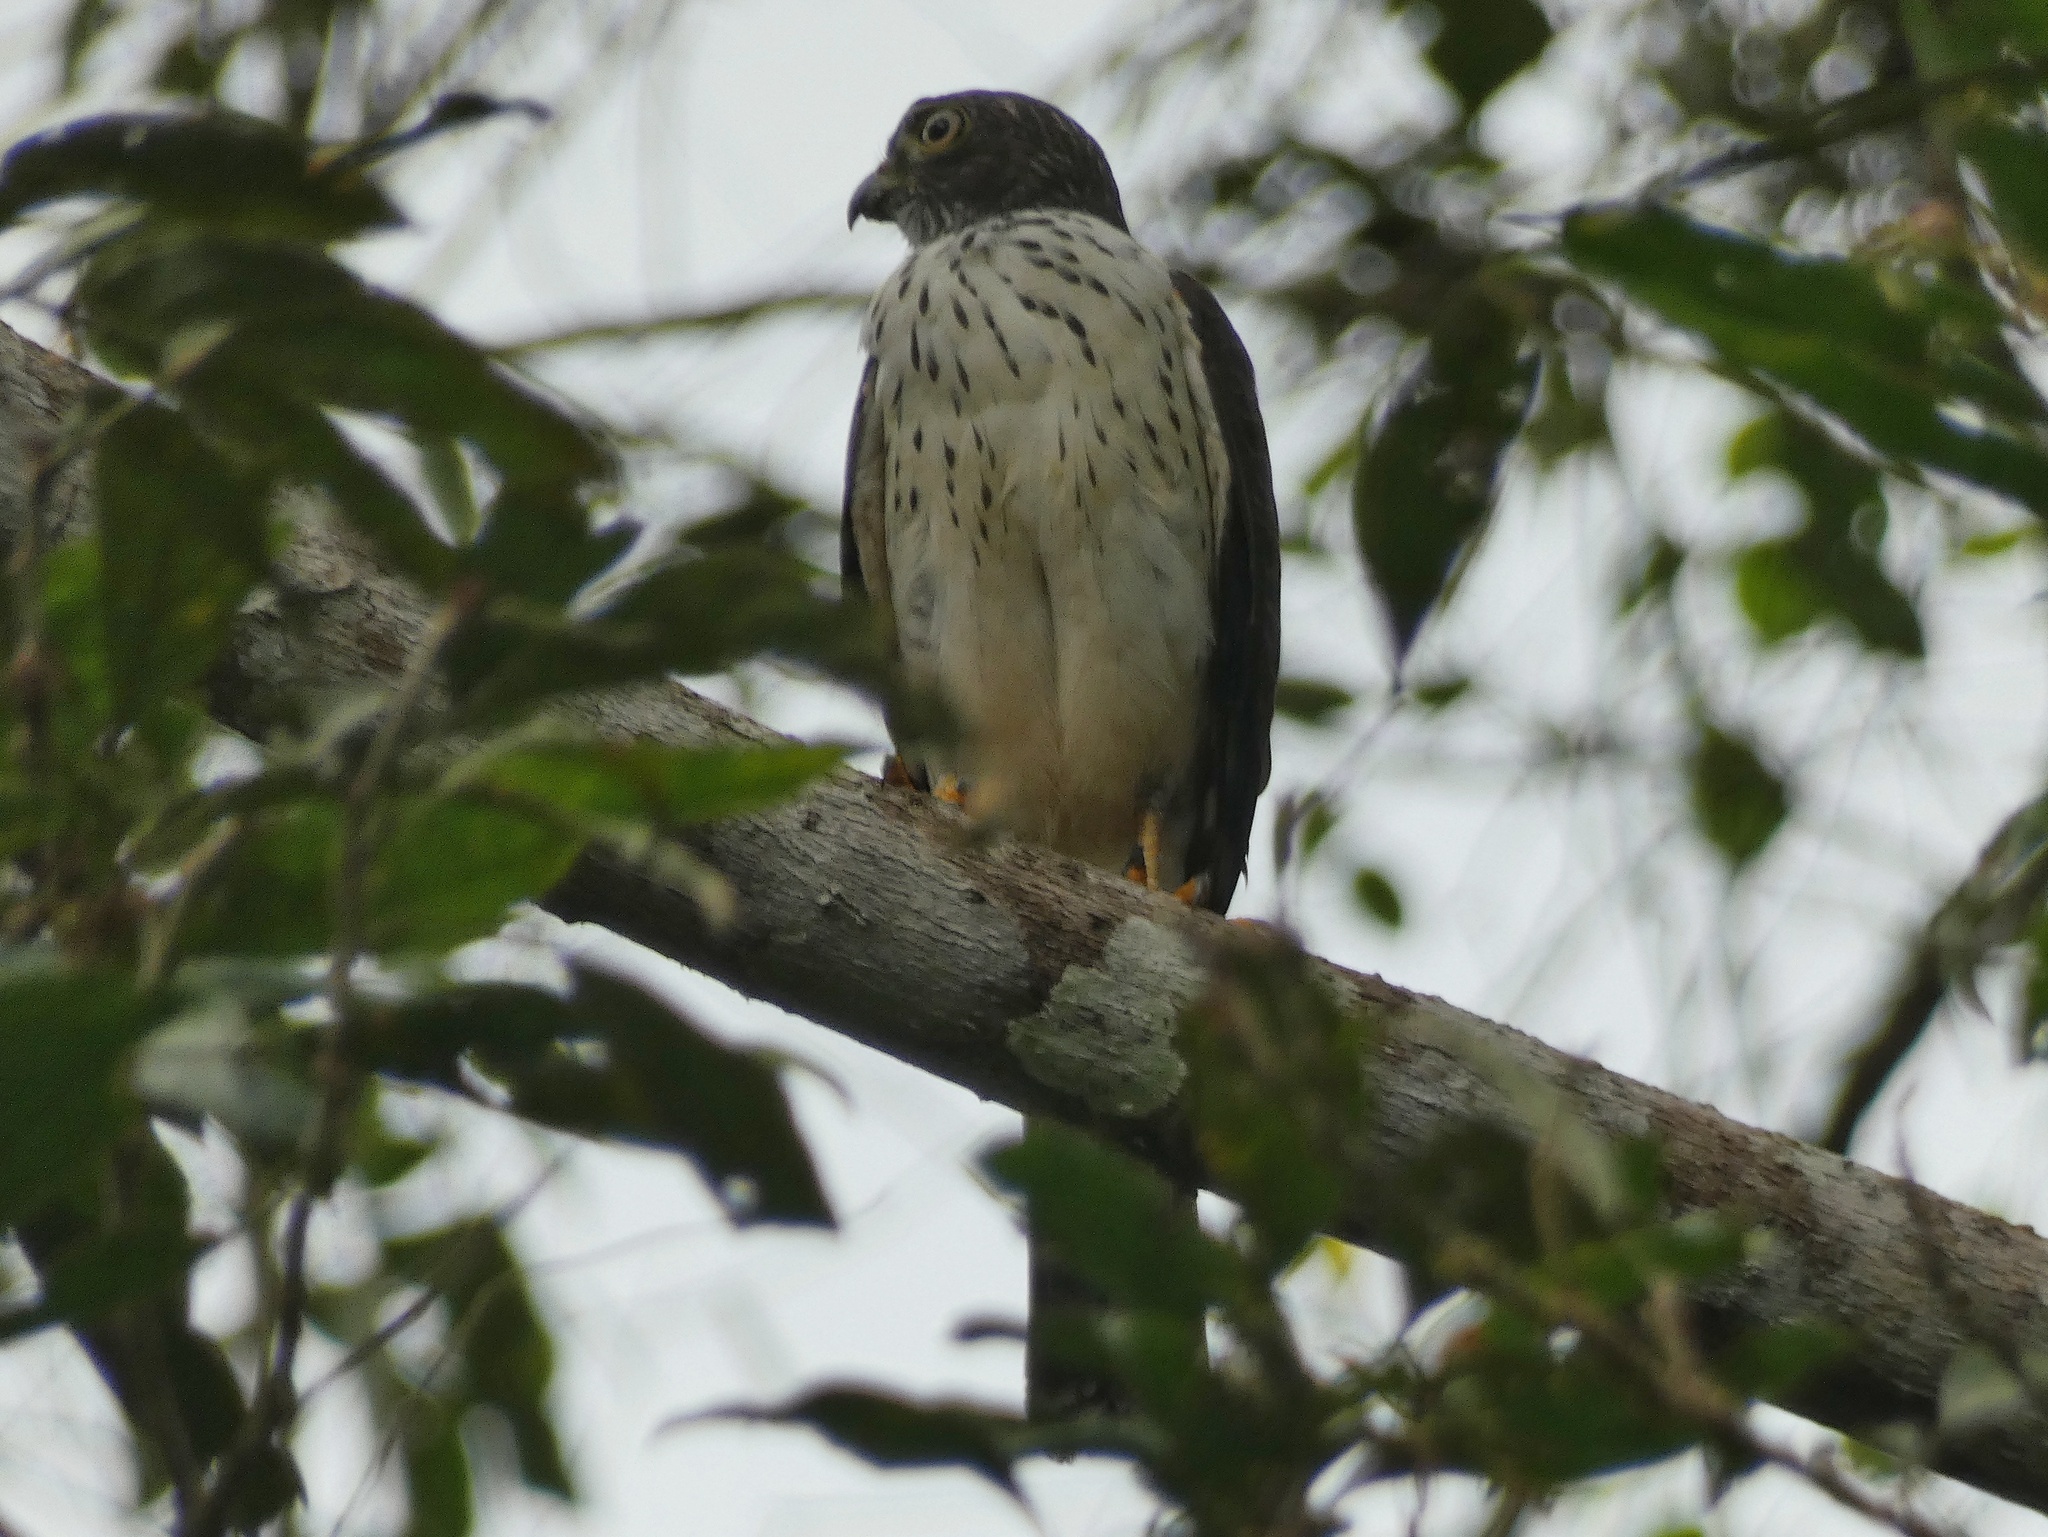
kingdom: Animalia
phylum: Chordata
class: Aves
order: Accipitriformes
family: Accipitridae
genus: Harpagus
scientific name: Harpagus bidentatus
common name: Double-toothed kite
